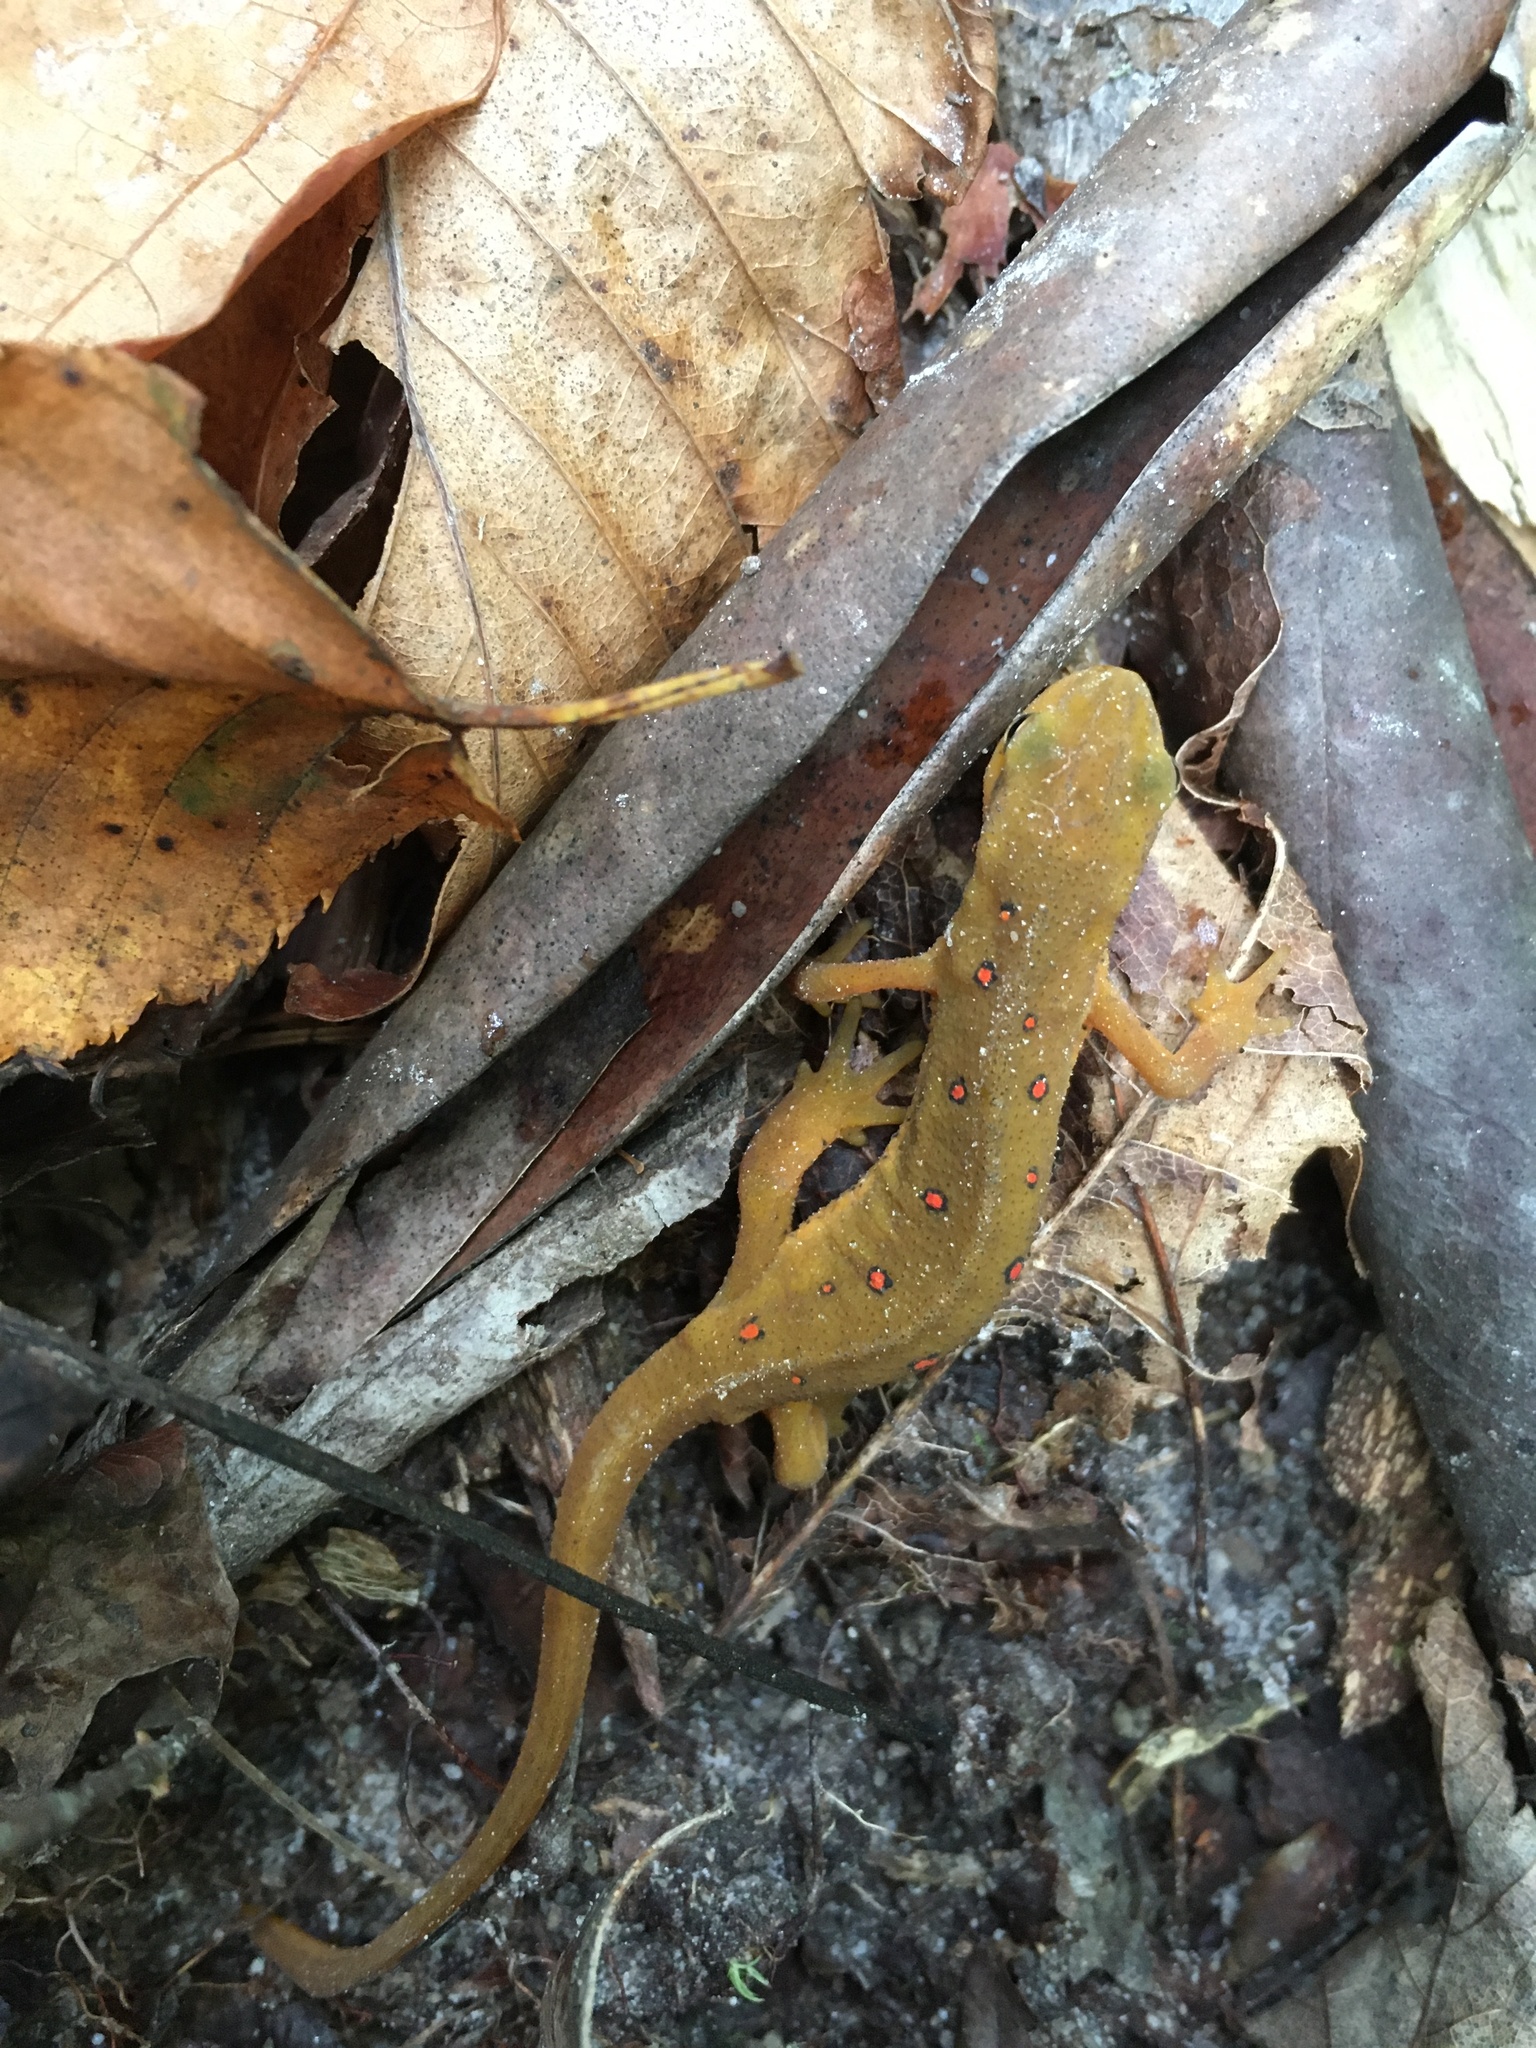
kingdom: Animalia
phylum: Chordata
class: Amphibia
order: Caudata
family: Salamandridae
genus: Notophthalmus
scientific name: Notophthalmus viridescens
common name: Eastern newt
